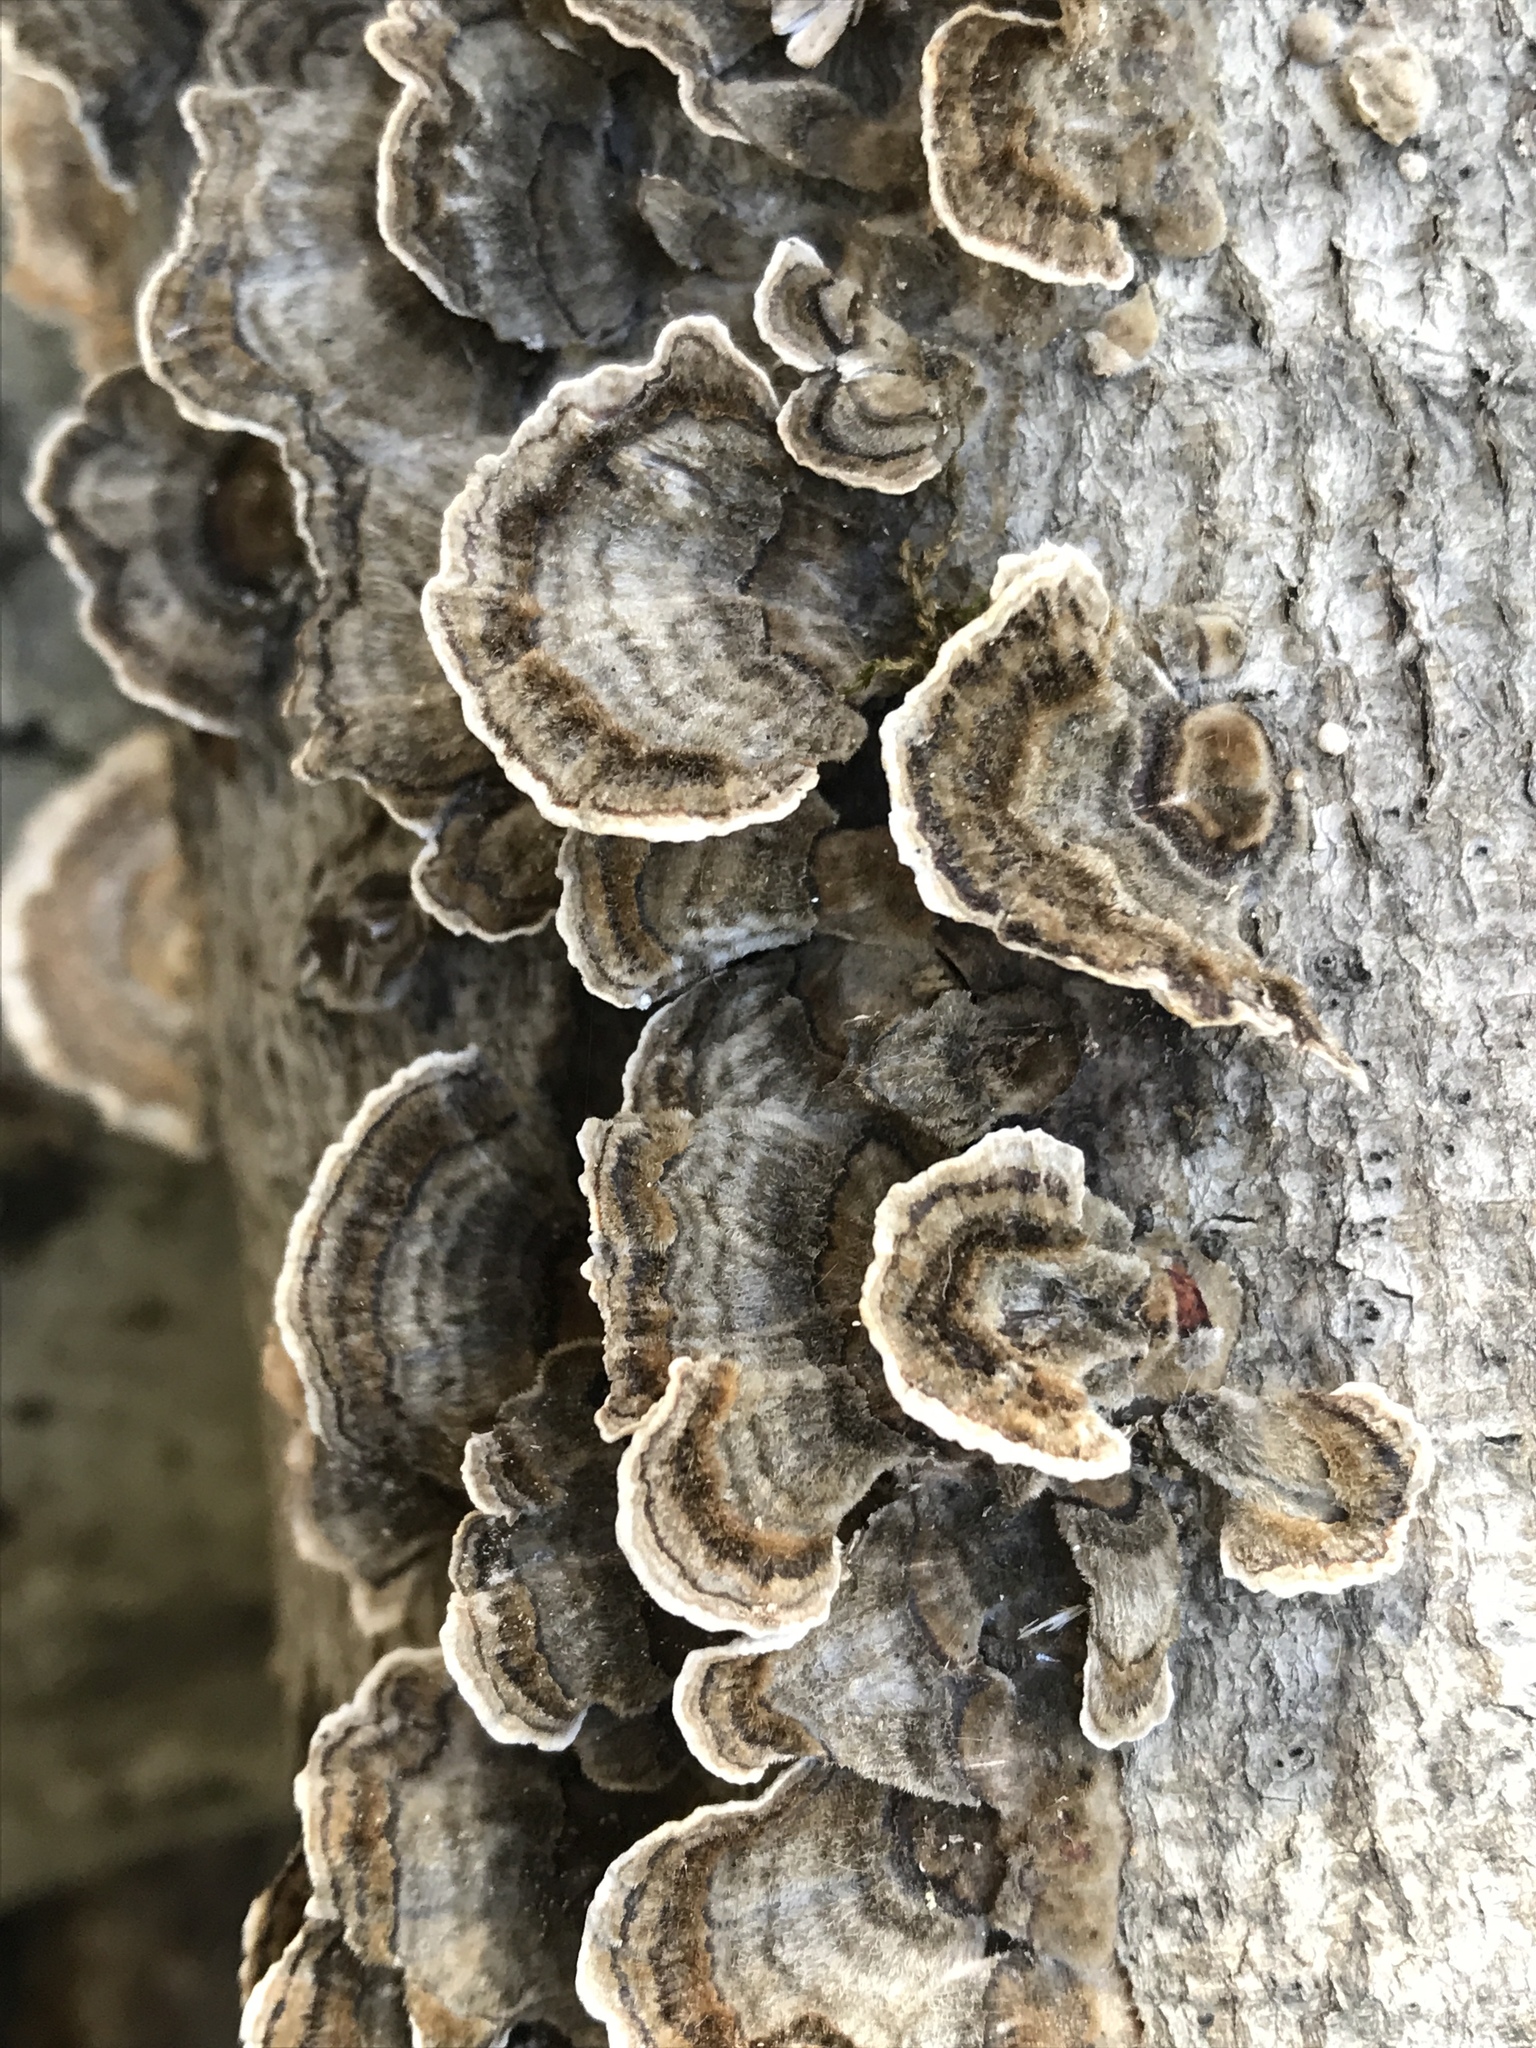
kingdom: Fungi
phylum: Basidiomycota
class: Agaricomycetes
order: Polyporales
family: Polyporaceae
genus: Trametes
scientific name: Trametes versicolor
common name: Turkeytail
